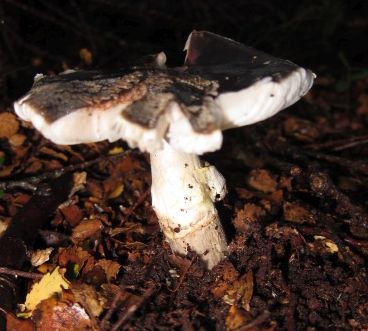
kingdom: Fungi
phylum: Basidiomycota
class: Agaricomycetes
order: Agaricales
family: Amanitaceae
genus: Amanita
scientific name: Amanita nothofagi
